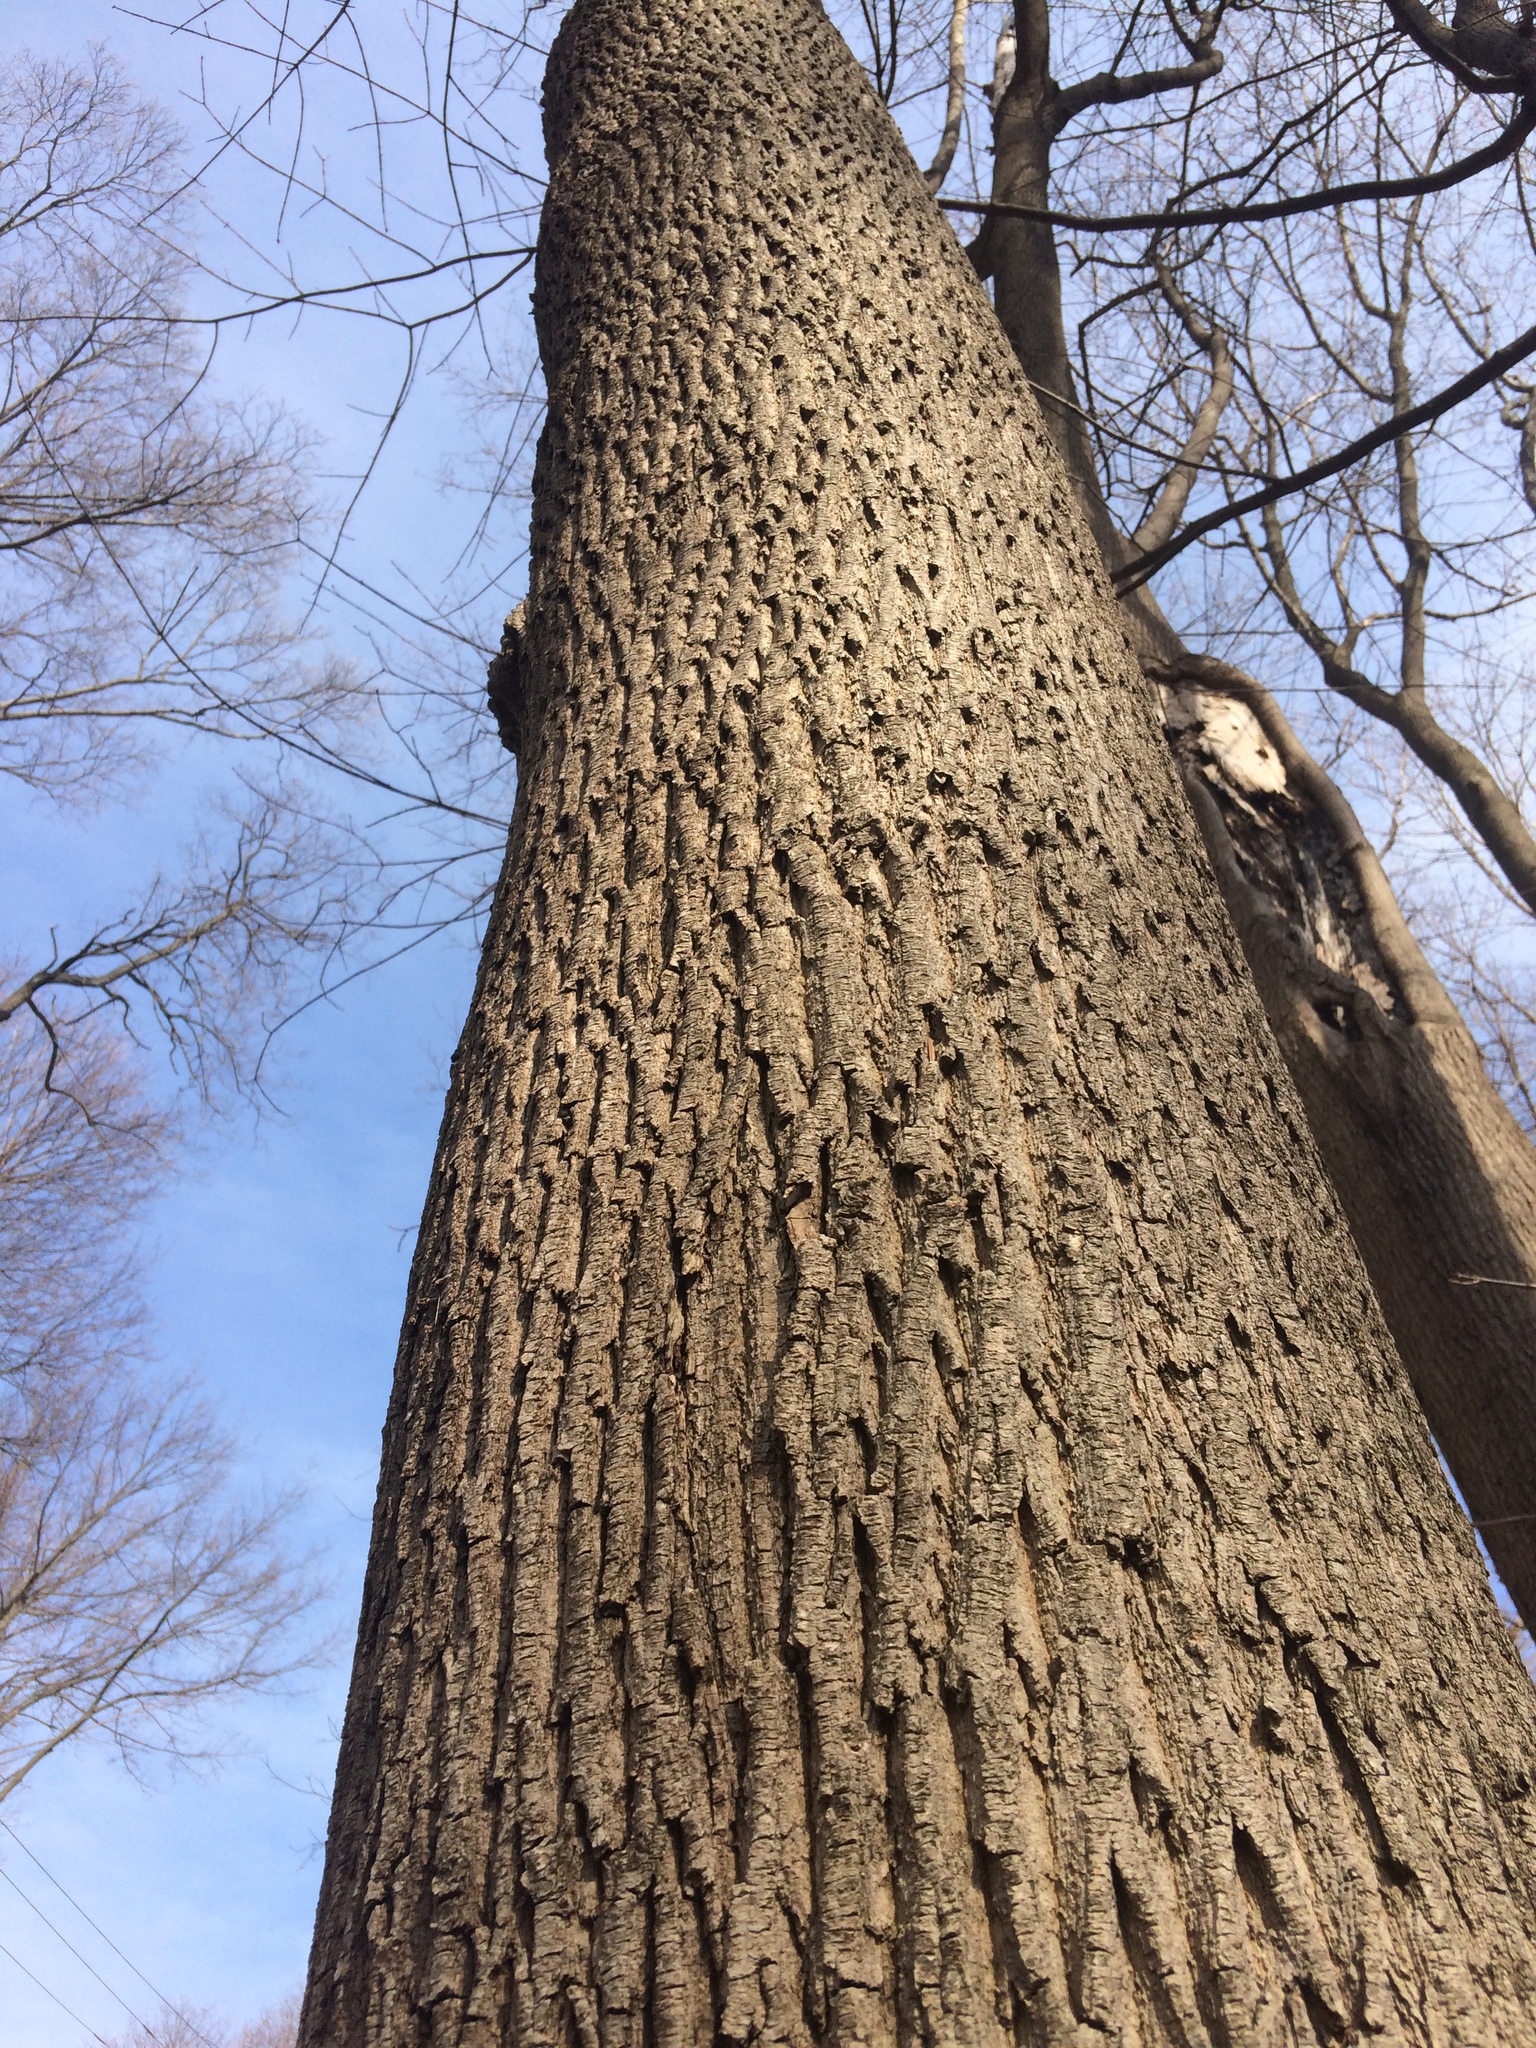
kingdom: Plantae
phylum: Tracheophyta
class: Magnoliopsida
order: Lamiales
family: Oleaceae
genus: Fraxinus
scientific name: Fraxinus americana
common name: White ash
